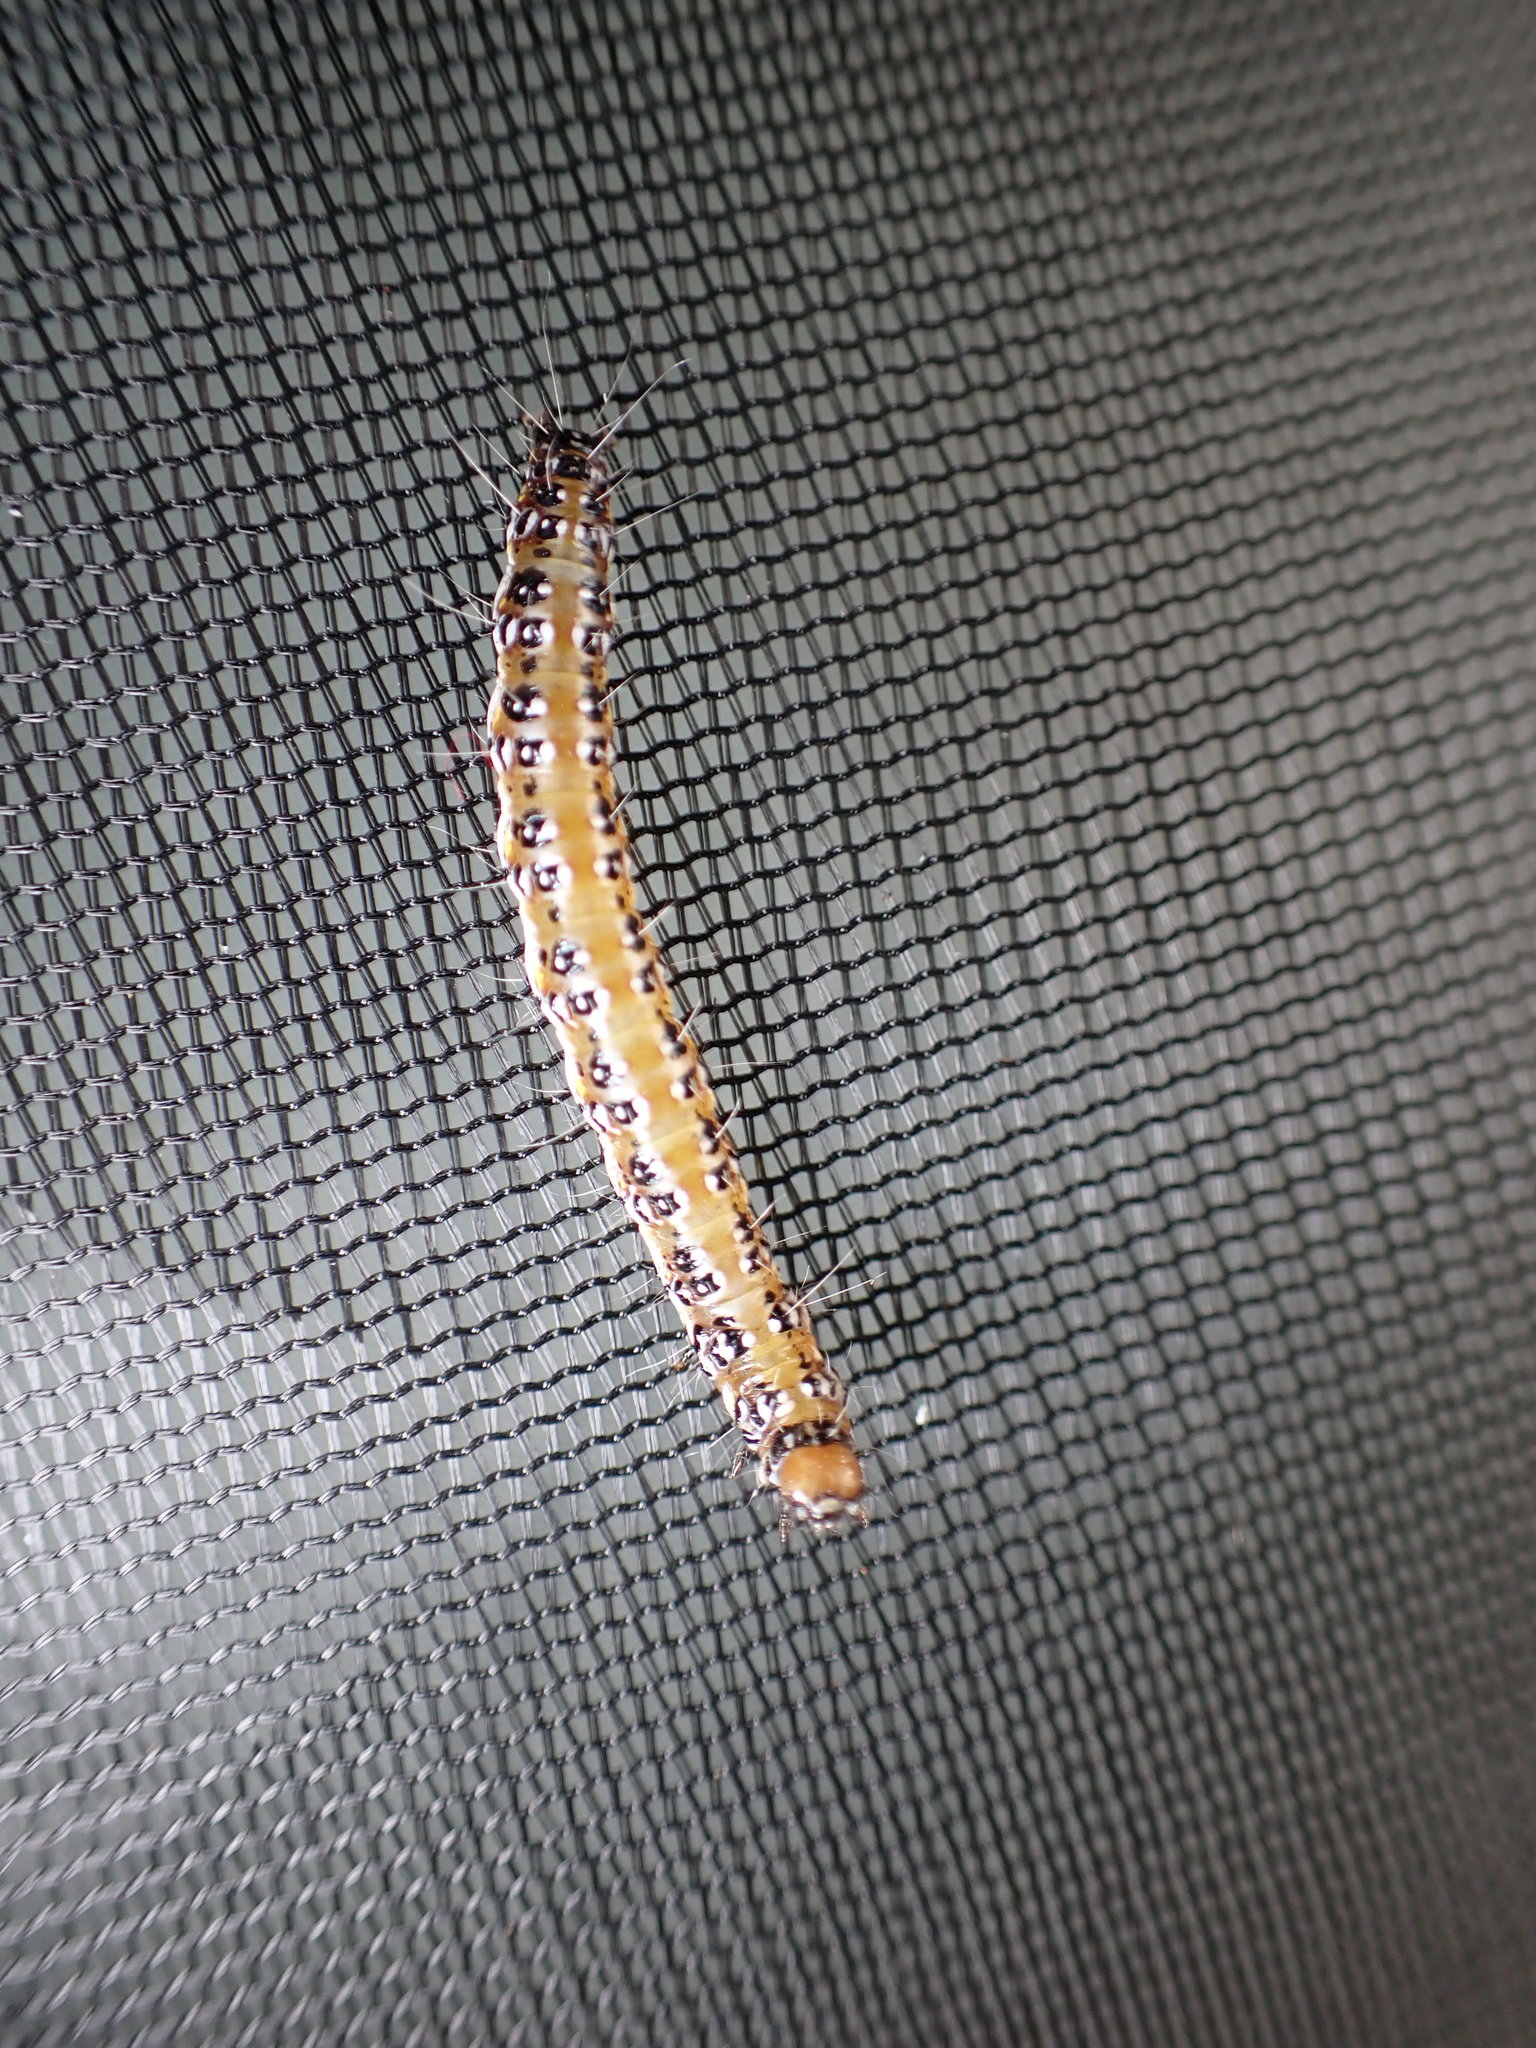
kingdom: Animalia
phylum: Arthropoda
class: Insecta
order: Lepidoptera
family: Crambidae
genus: Uresiphita
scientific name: Uresiphita
